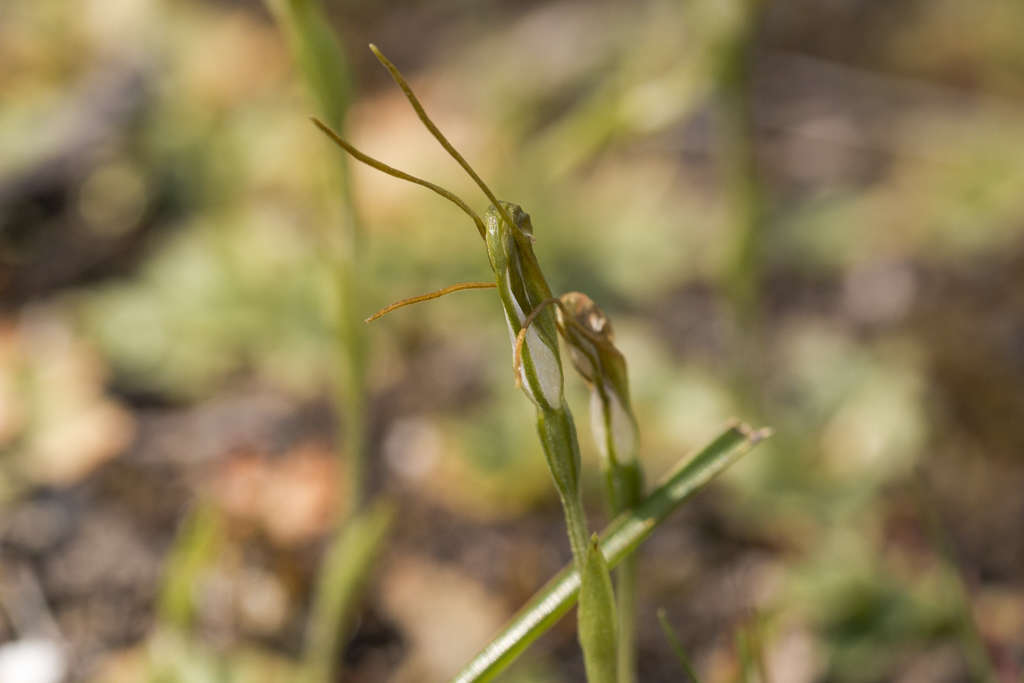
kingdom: Plantae
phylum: Tracheophyta
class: Liliopsida
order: Asparagales
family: Orchidaceae
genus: Pterostylis
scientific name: Pterostylis nana
